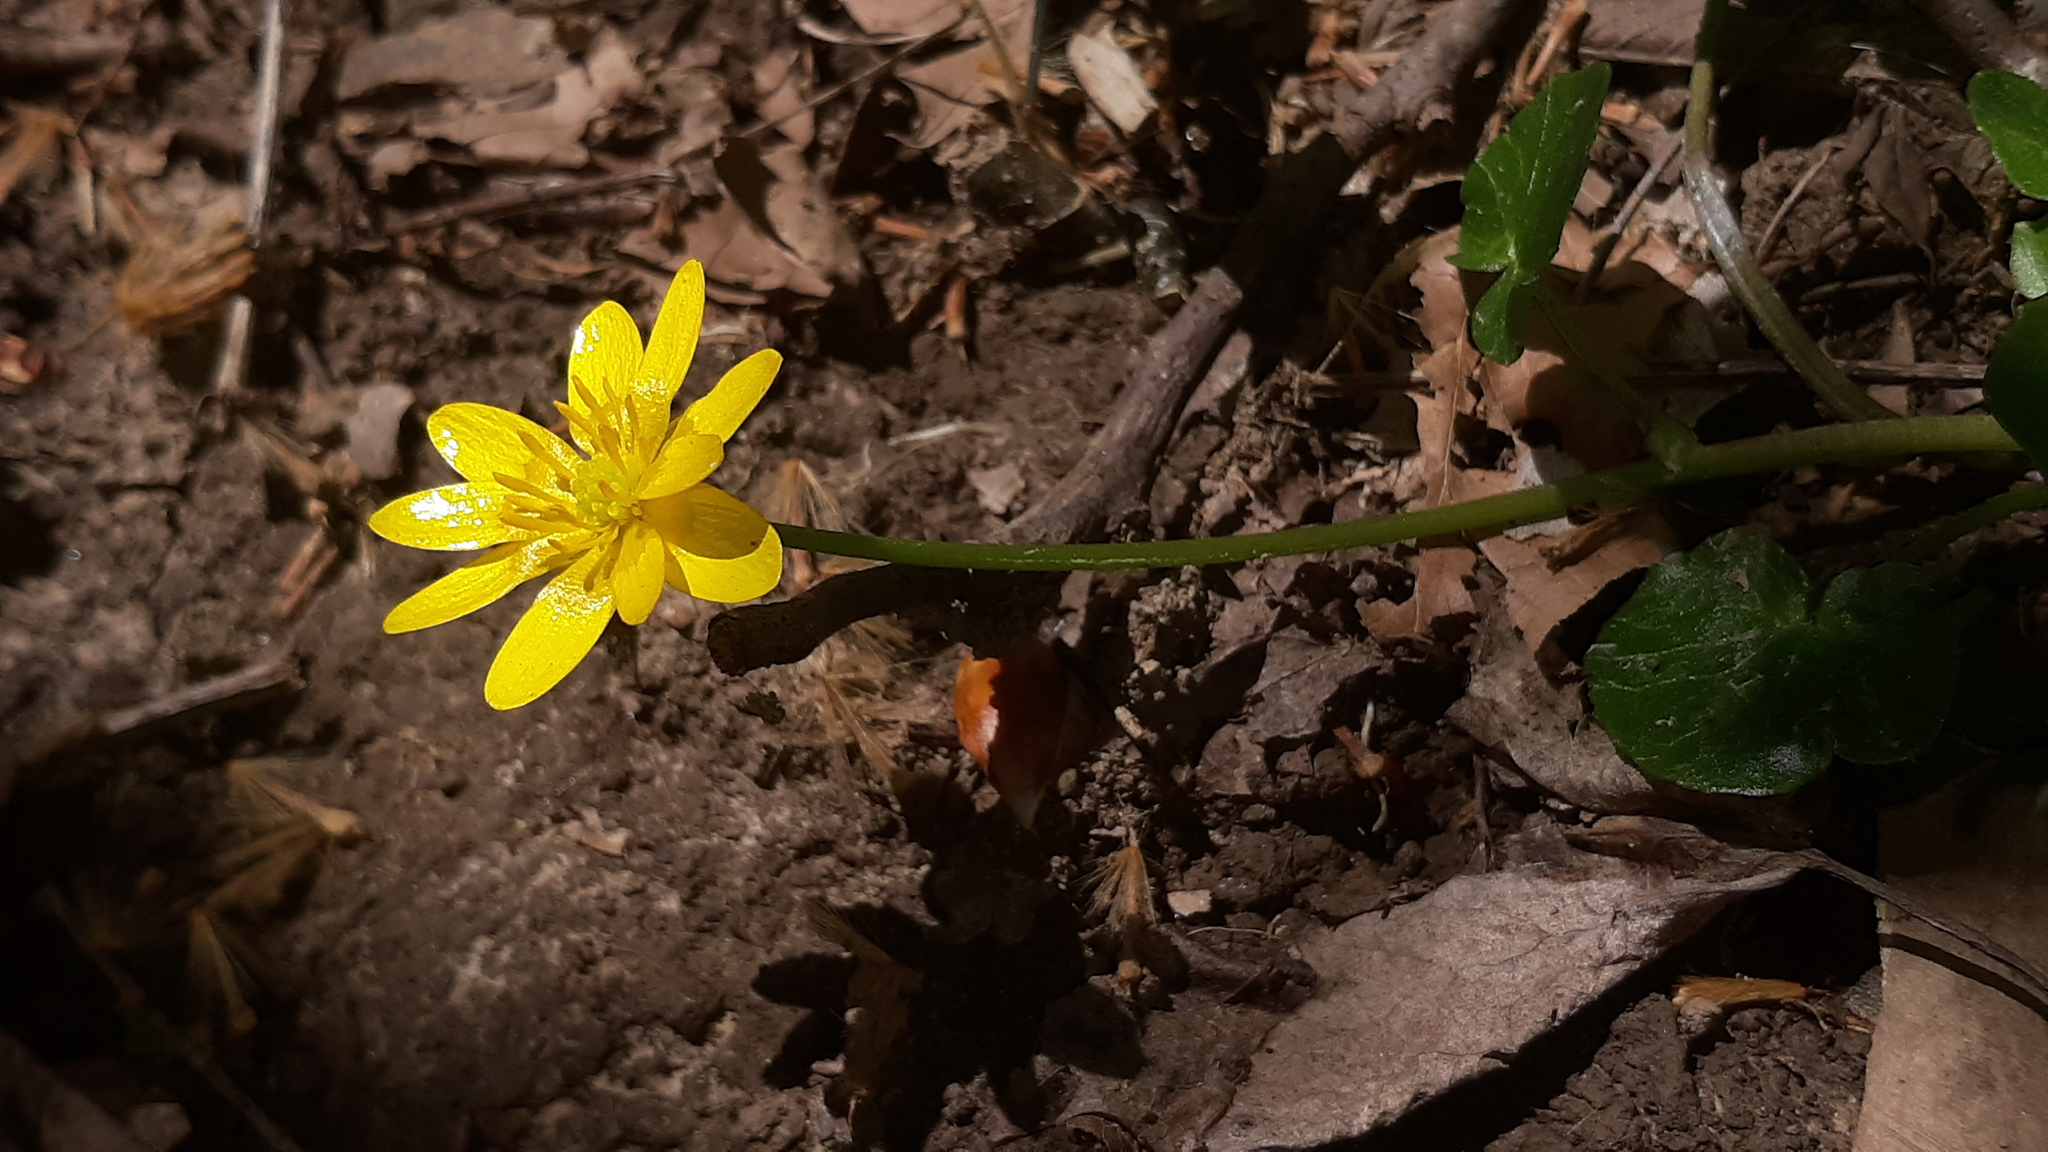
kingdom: Plantae
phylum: Tracheophyta
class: Magnoliopsida
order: Ranunculales
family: Ranunculaceae
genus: Ficaria
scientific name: Ficaria verna
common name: Lesser celandine
